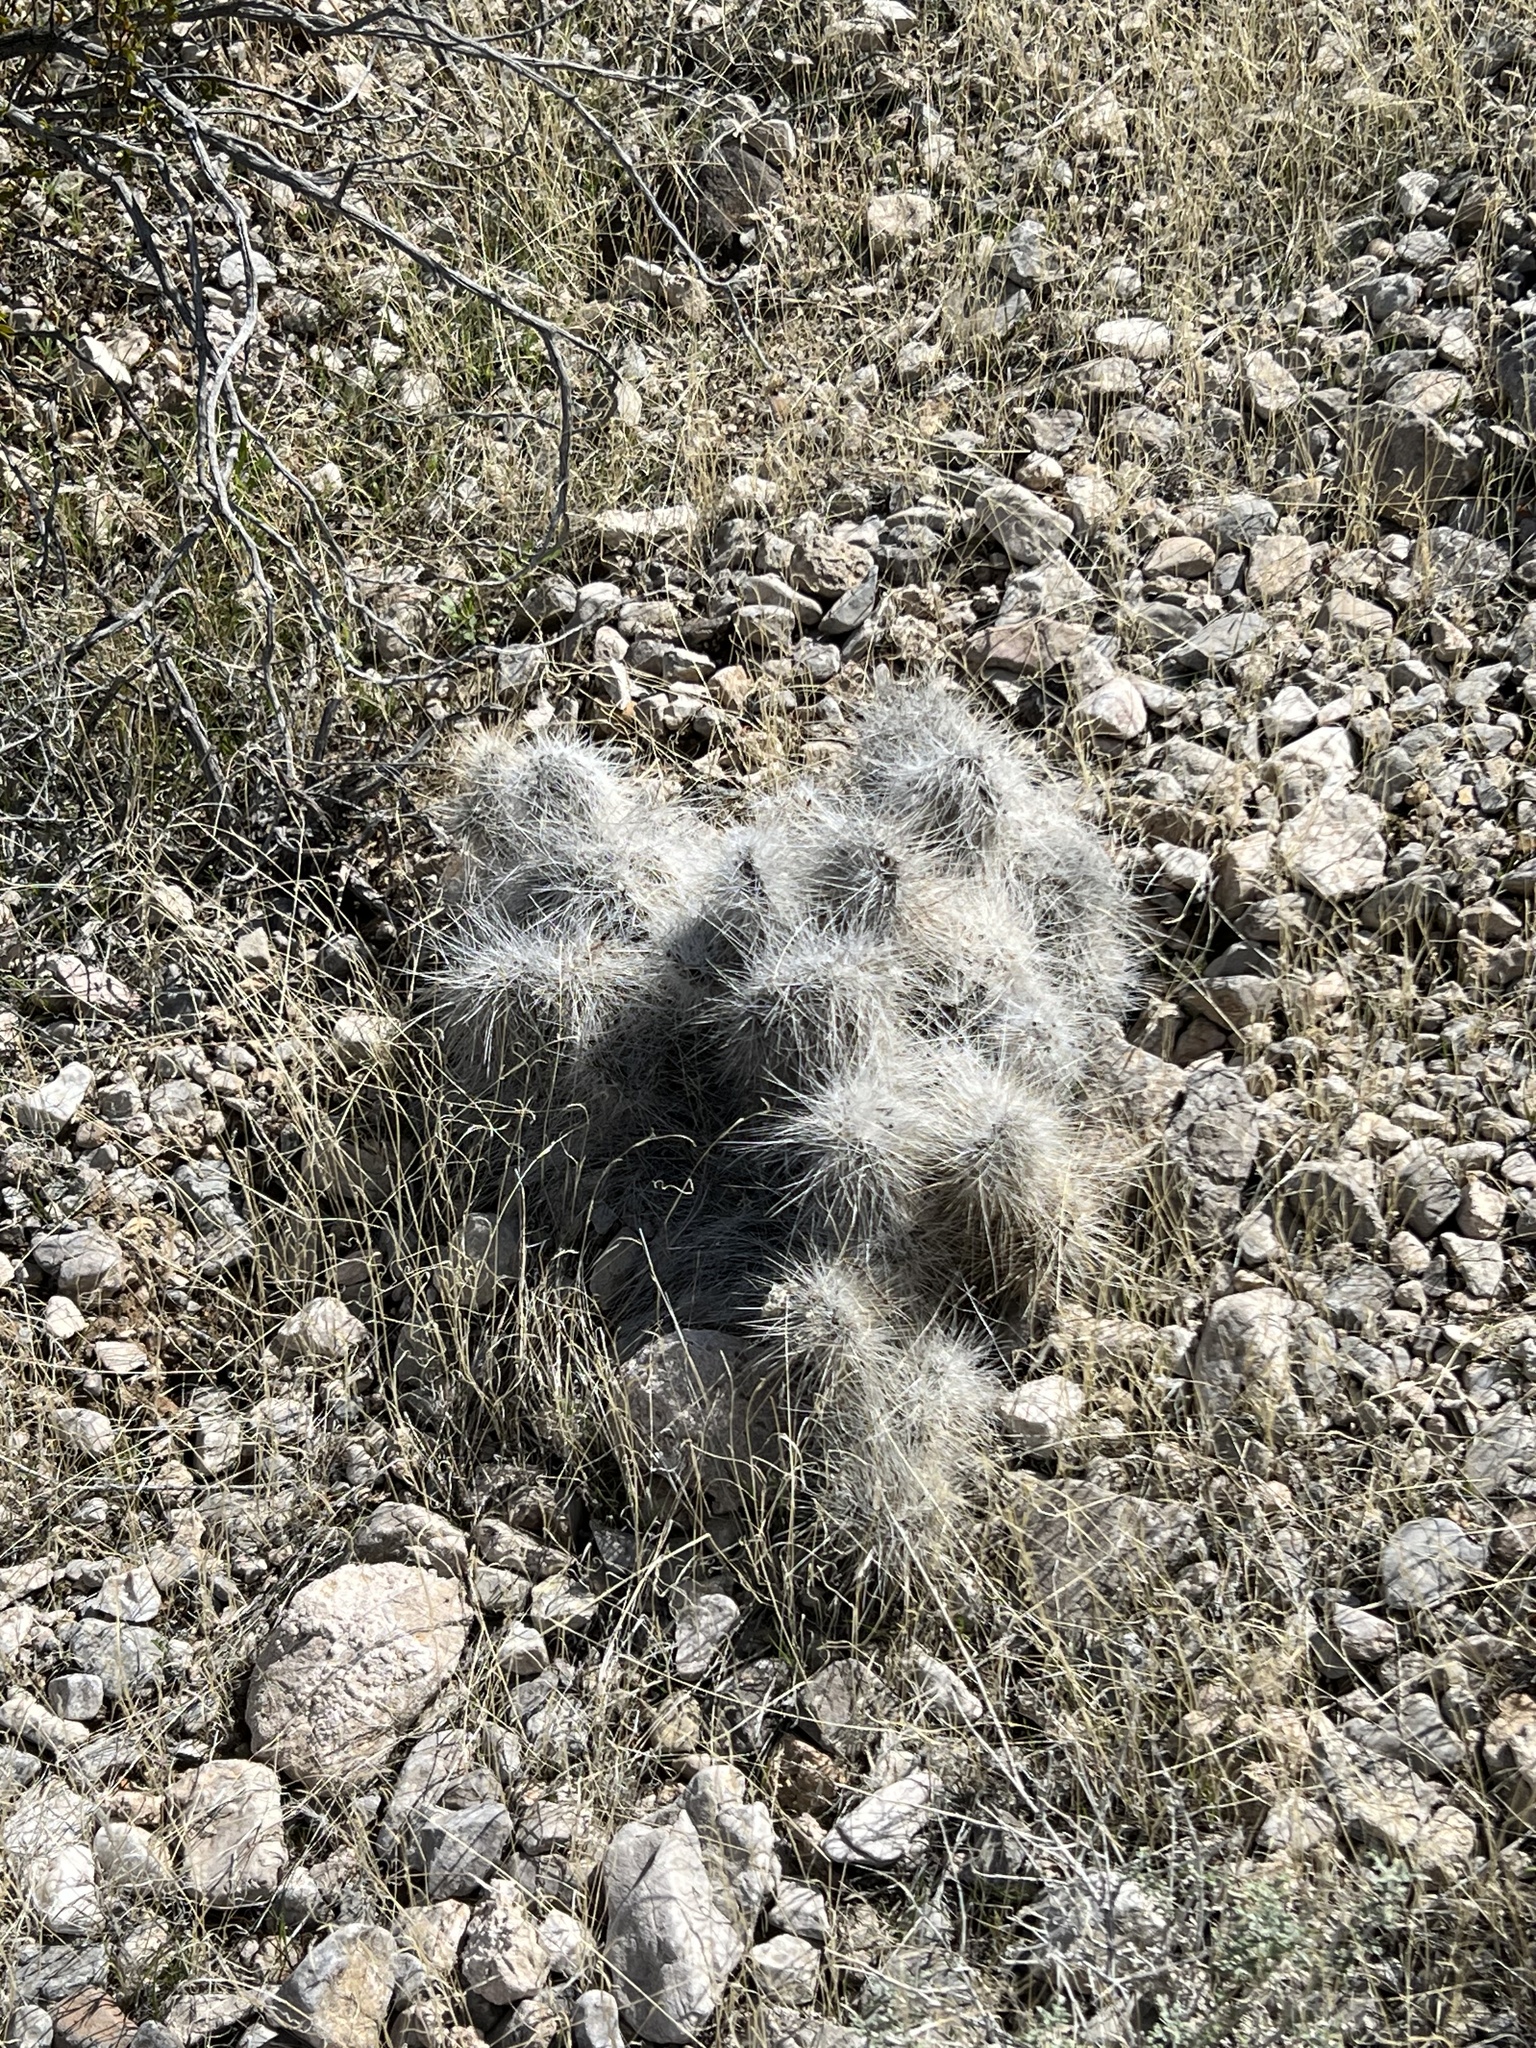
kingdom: Plantae
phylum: Tracheophyta
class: Magnoliopsida
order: Caryophyllales
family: Cactaceae
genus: Opuntia
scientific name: Opuntia polyacantha
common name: Plains prickly-pear
